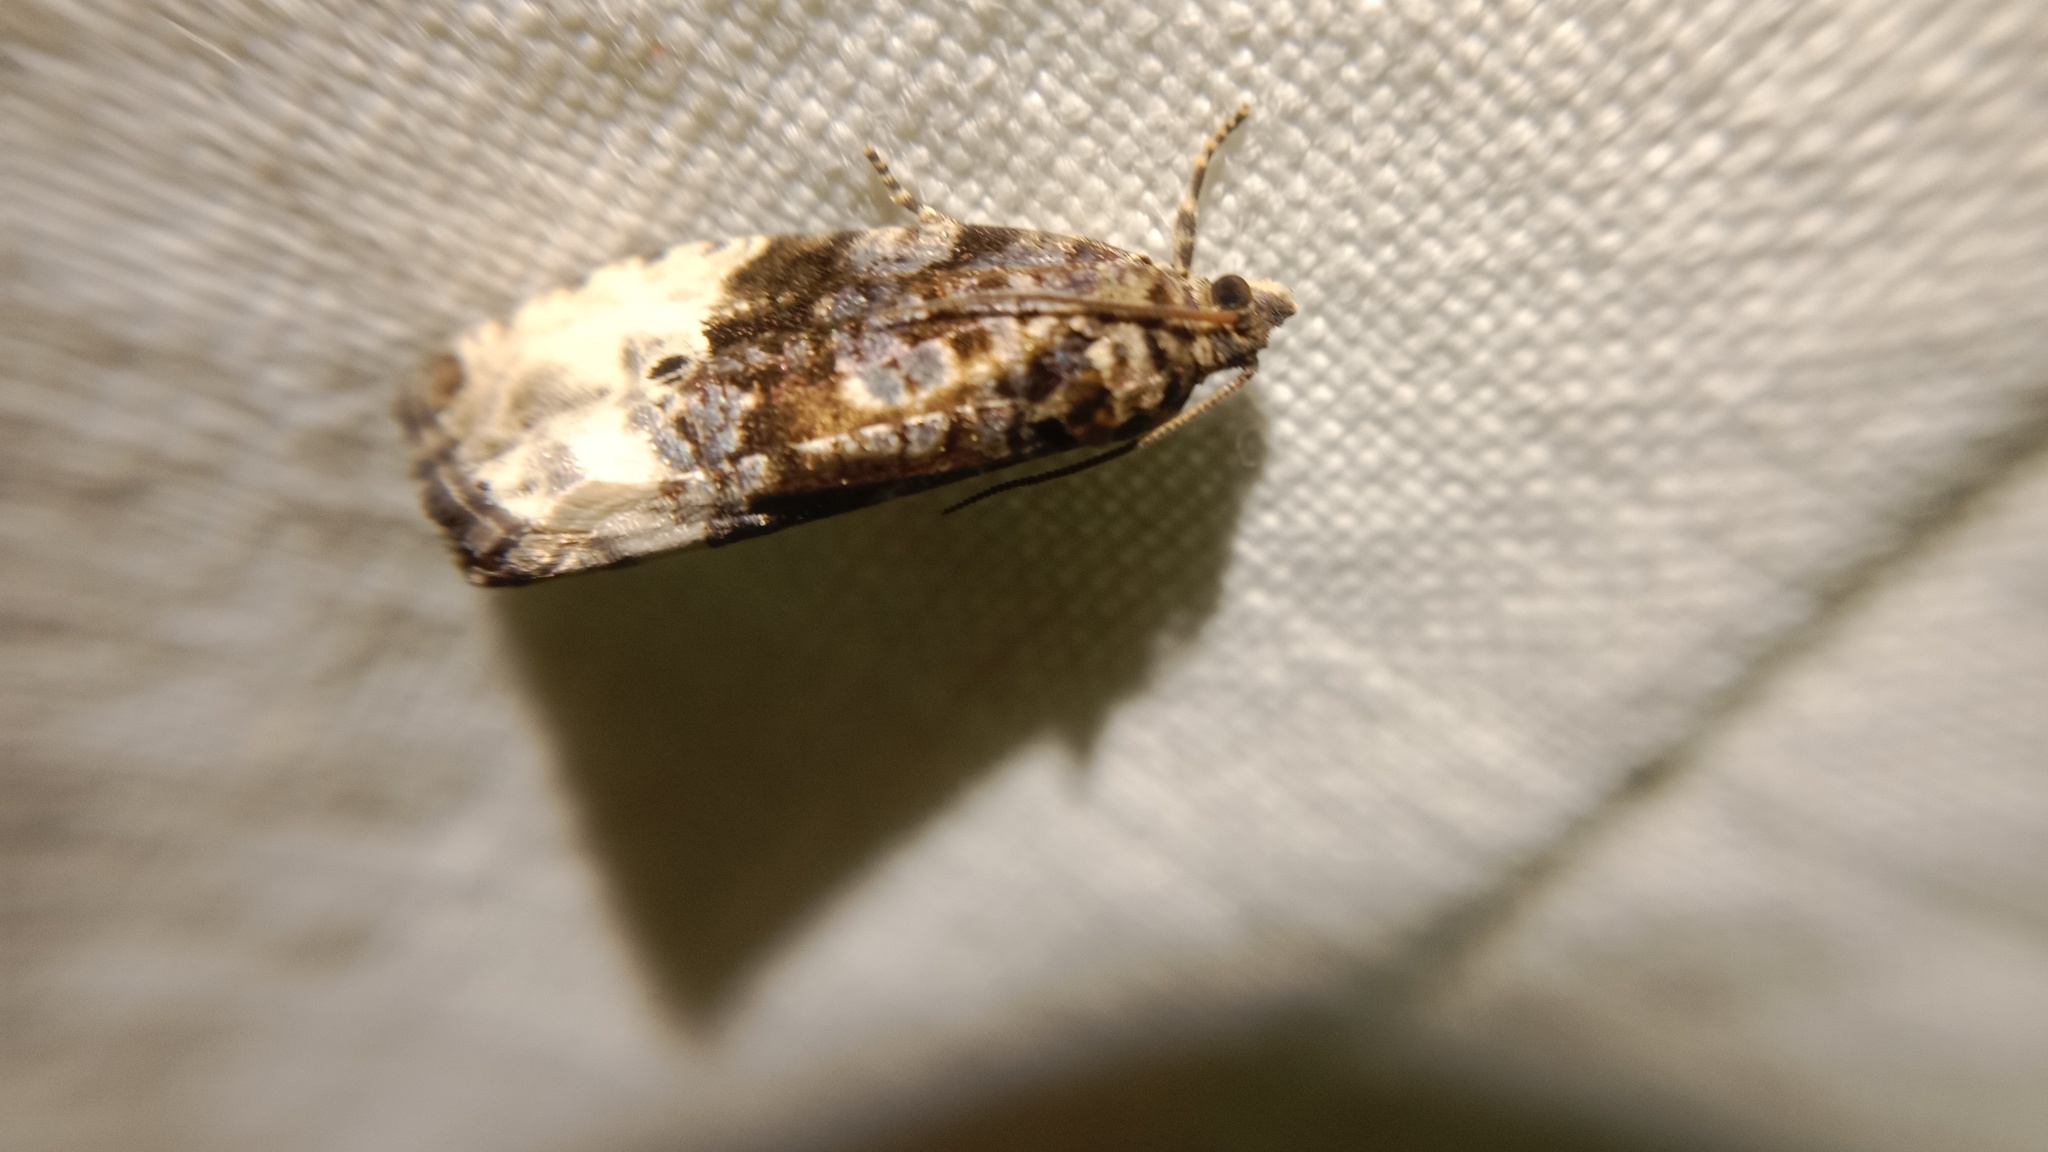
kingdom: Animalia
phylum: Arthropoda
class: Insecta
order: Lepidoptera
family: Tortricidae
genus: Hedya
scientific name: Hedya nubiferana
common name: Marbled orchard tortrix
